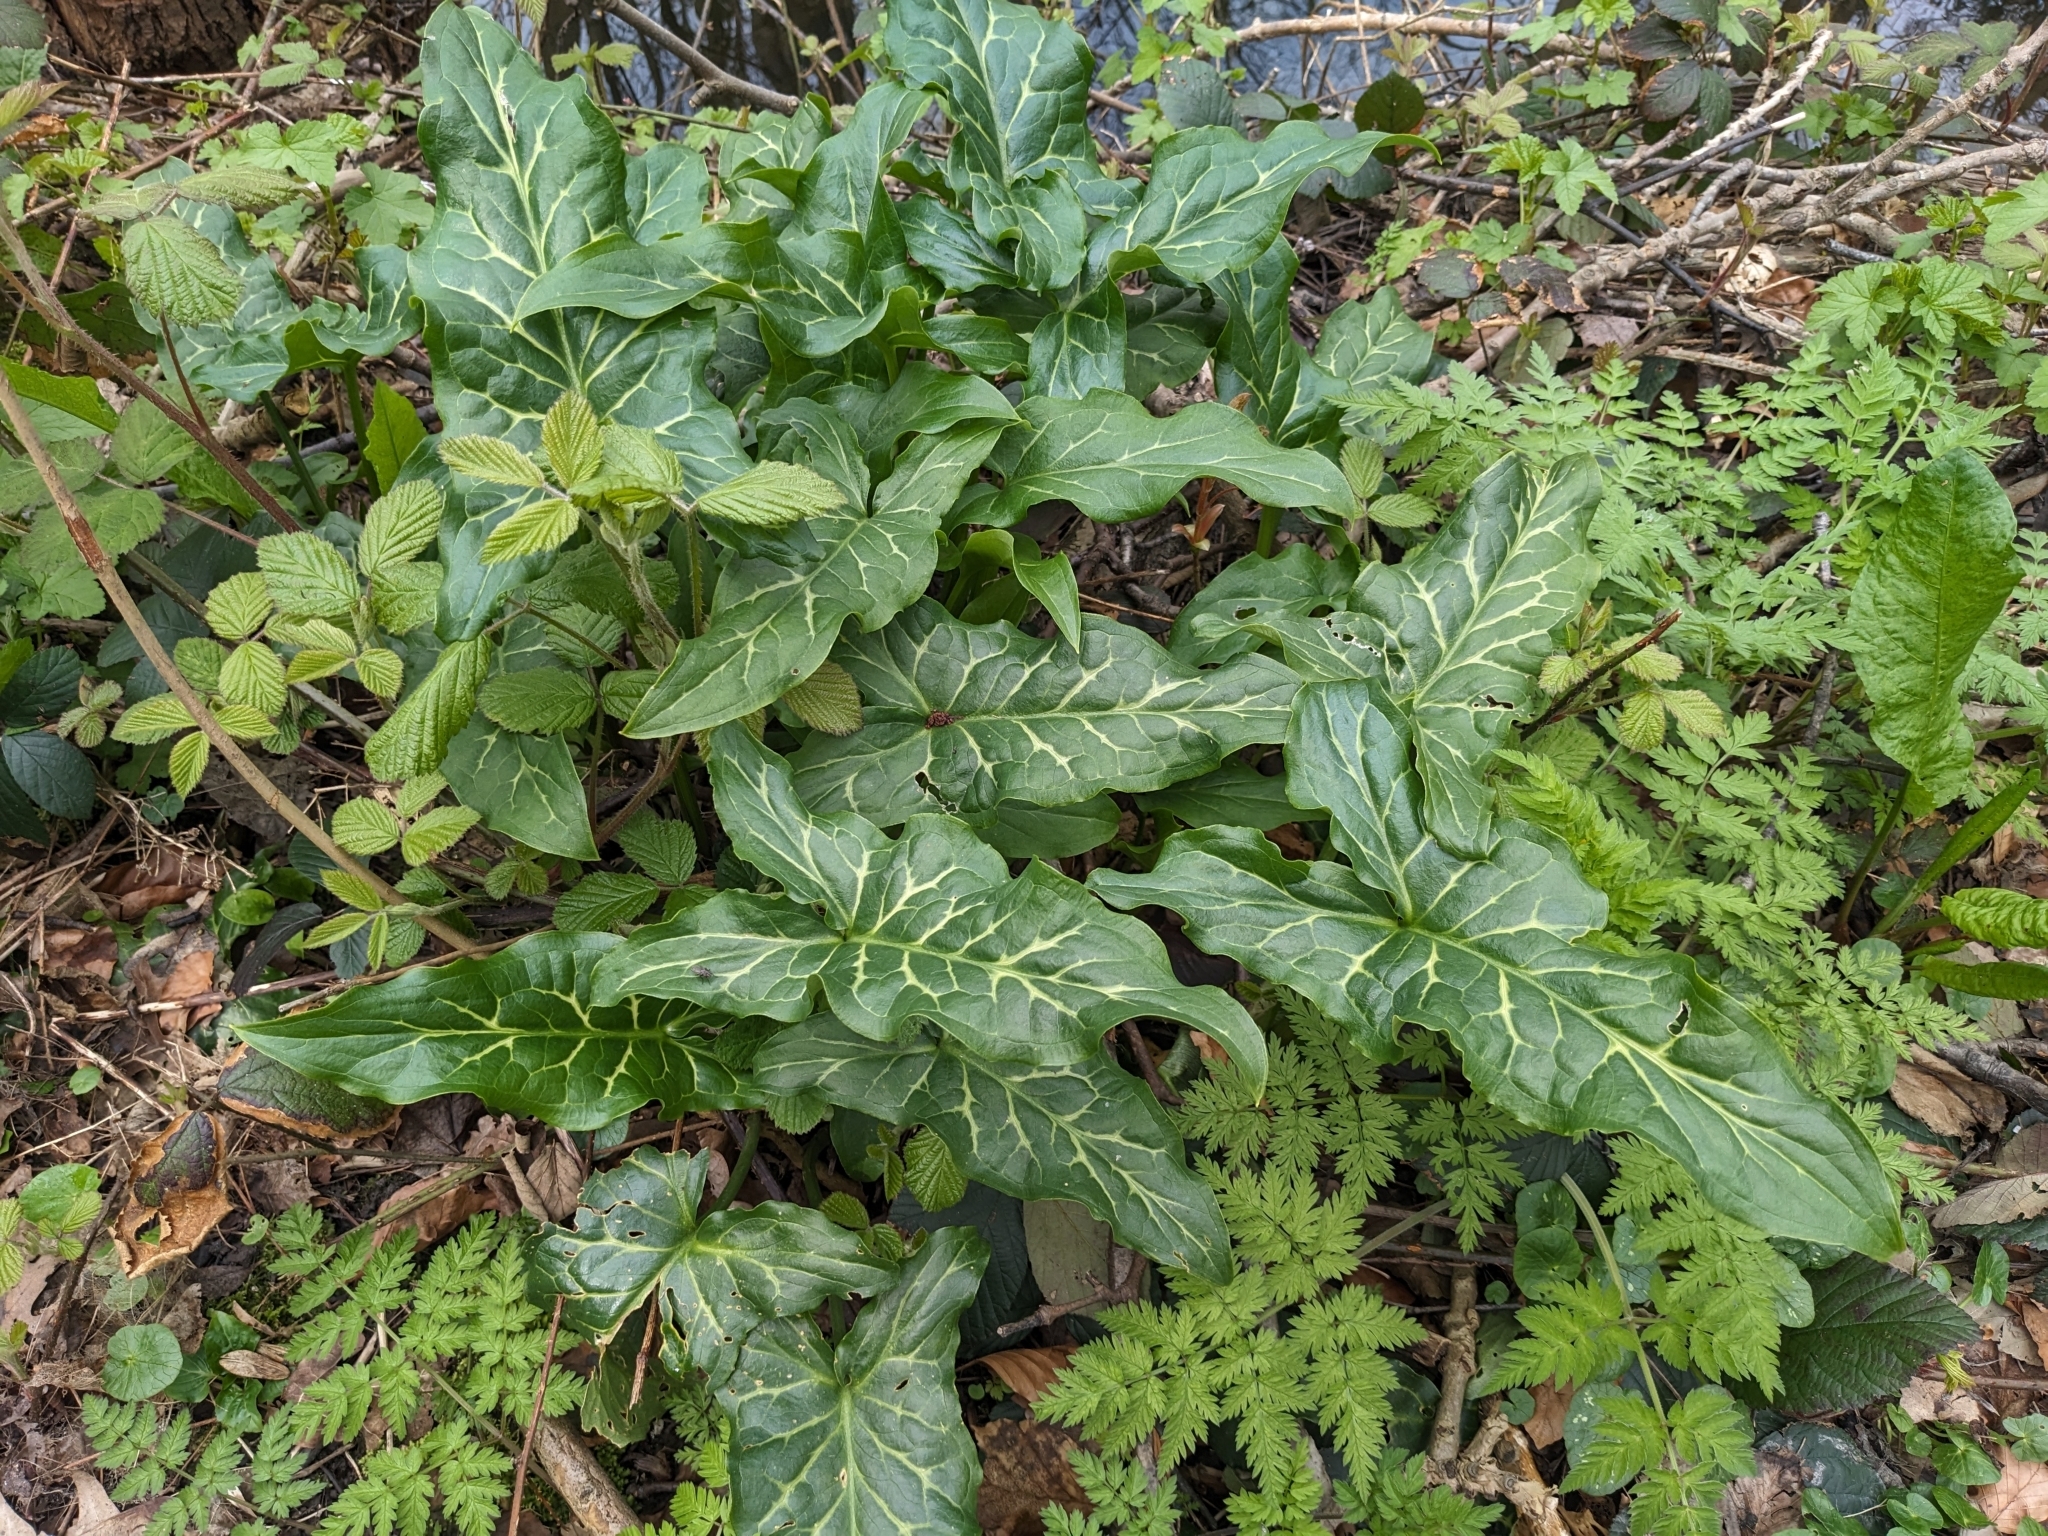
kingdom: Plantae
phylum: Tracheophyta
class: Liliopsida
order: Alismatales
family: Araceae
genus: Arum
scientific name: Arum italicum
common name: Italian lords-and-ladies
